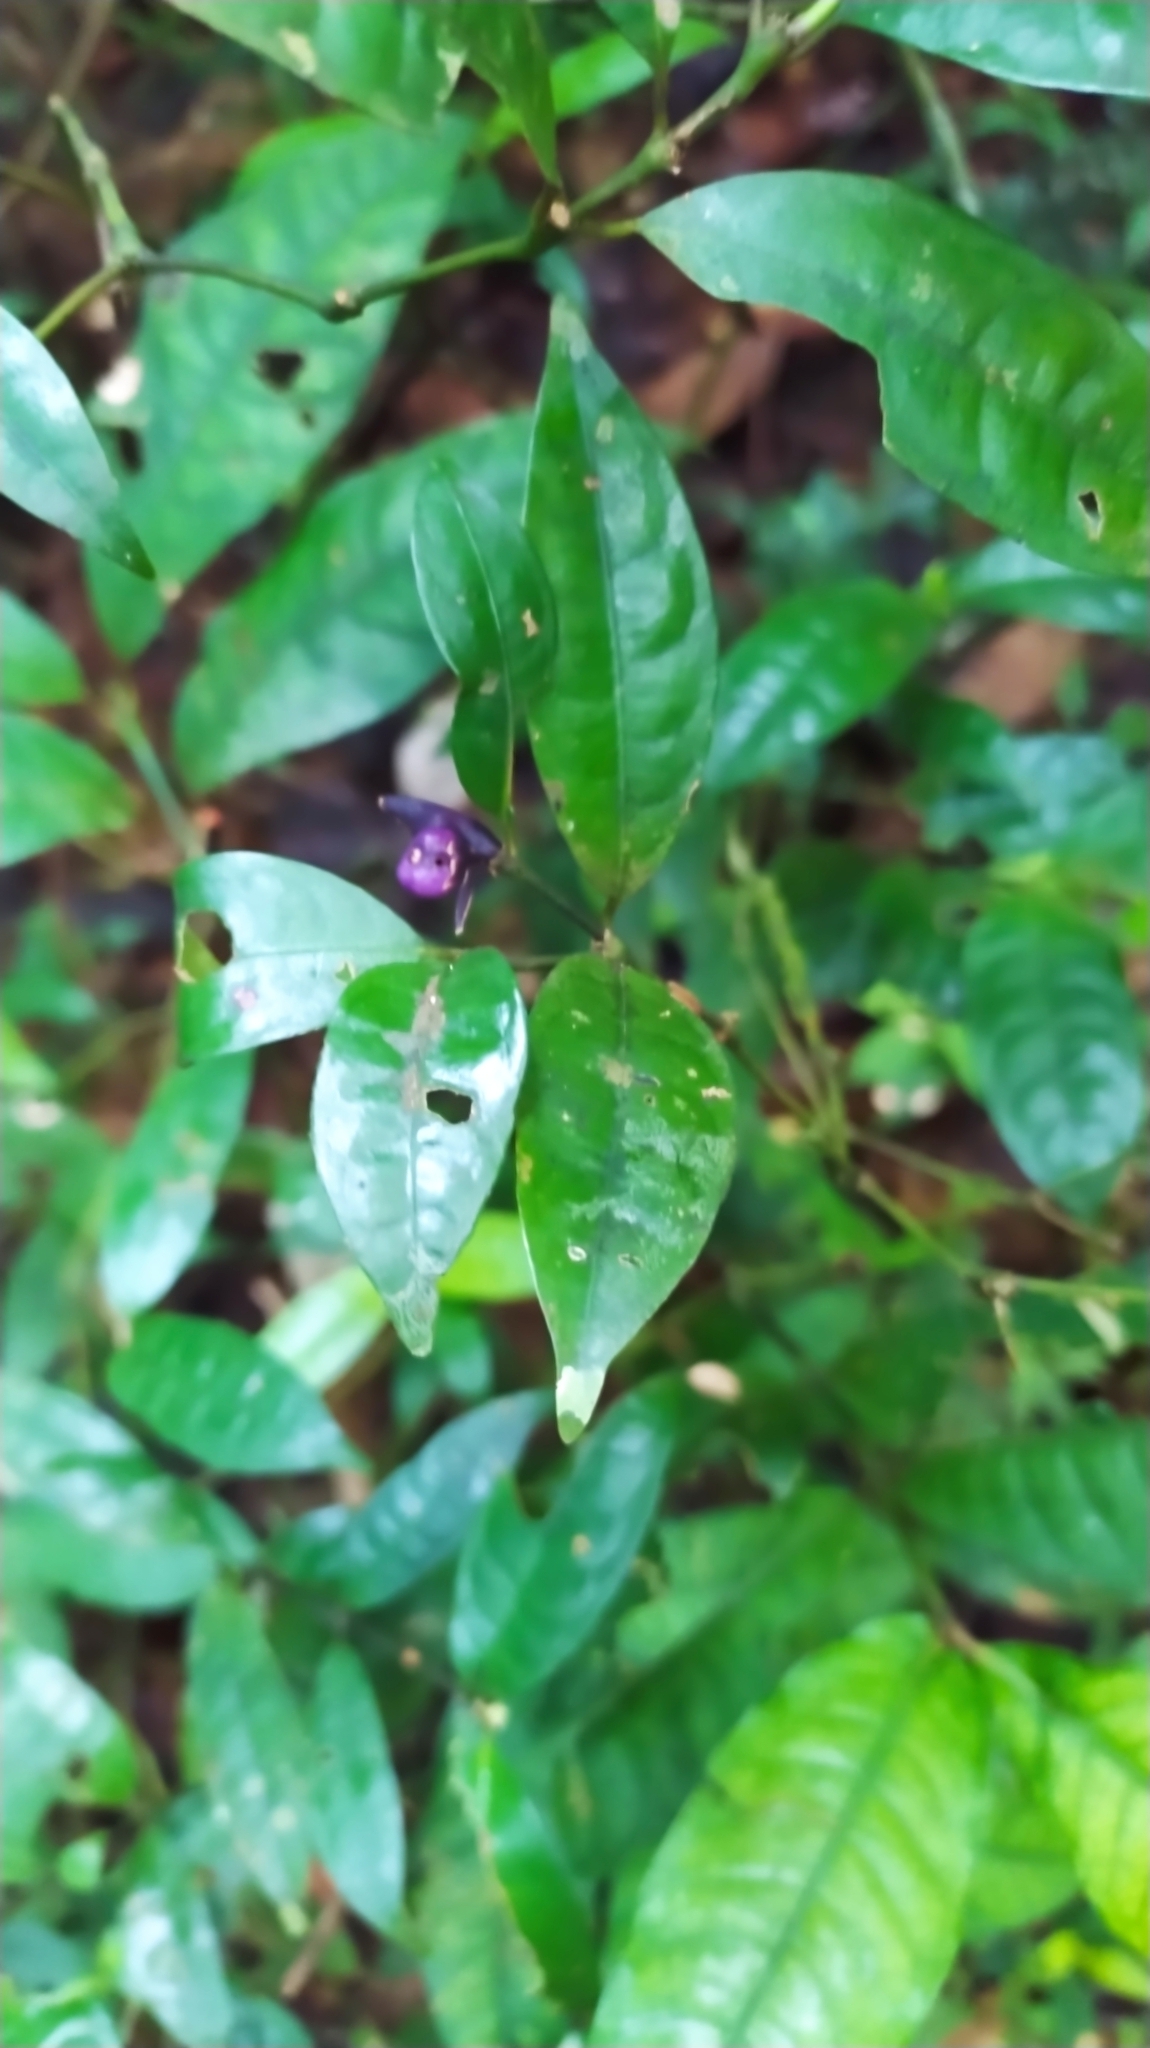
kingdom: Plantae
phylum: Tracheophyta
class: Magnoliopsida
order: Gentianales
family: Rubiaceae
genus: Palicourea
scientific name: Palicourea oblonga
